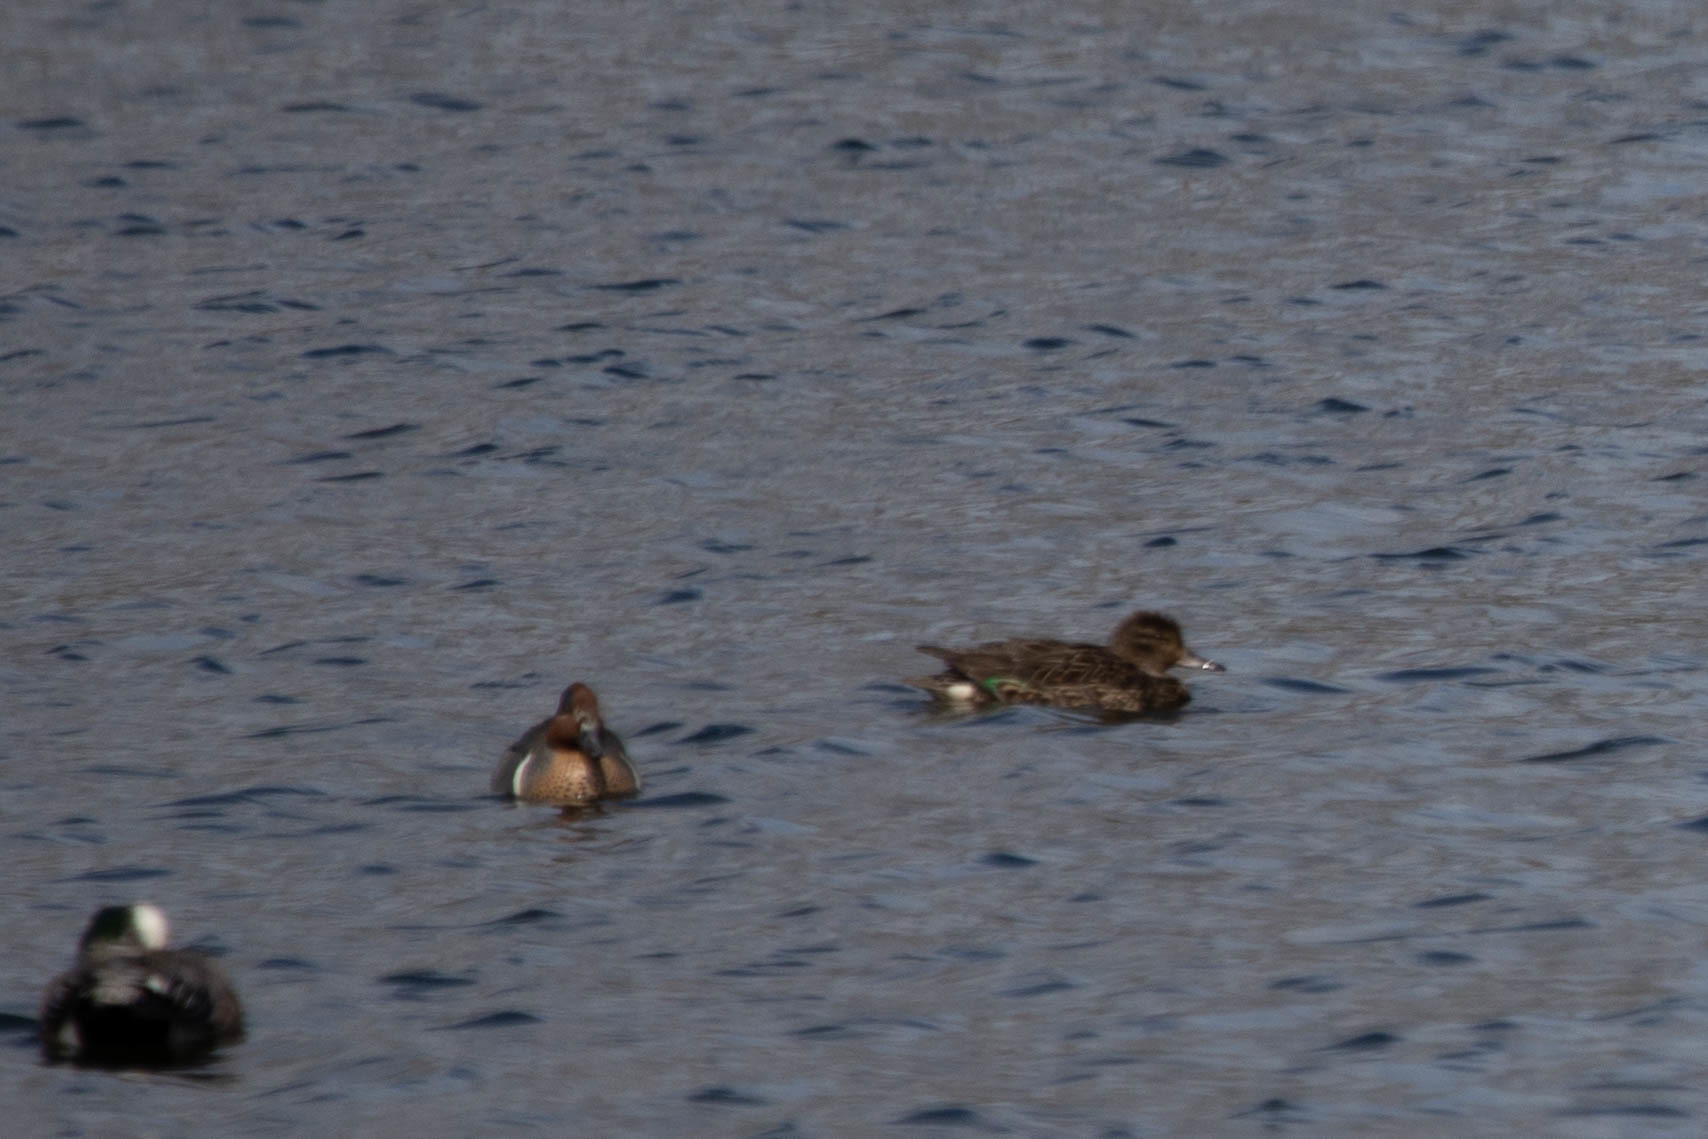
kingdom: Animalia
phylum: Chordata
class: Aves
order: Anseriformes
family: Anatidae
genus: Anas
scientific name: Anas crecca
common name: Eurasian teal
